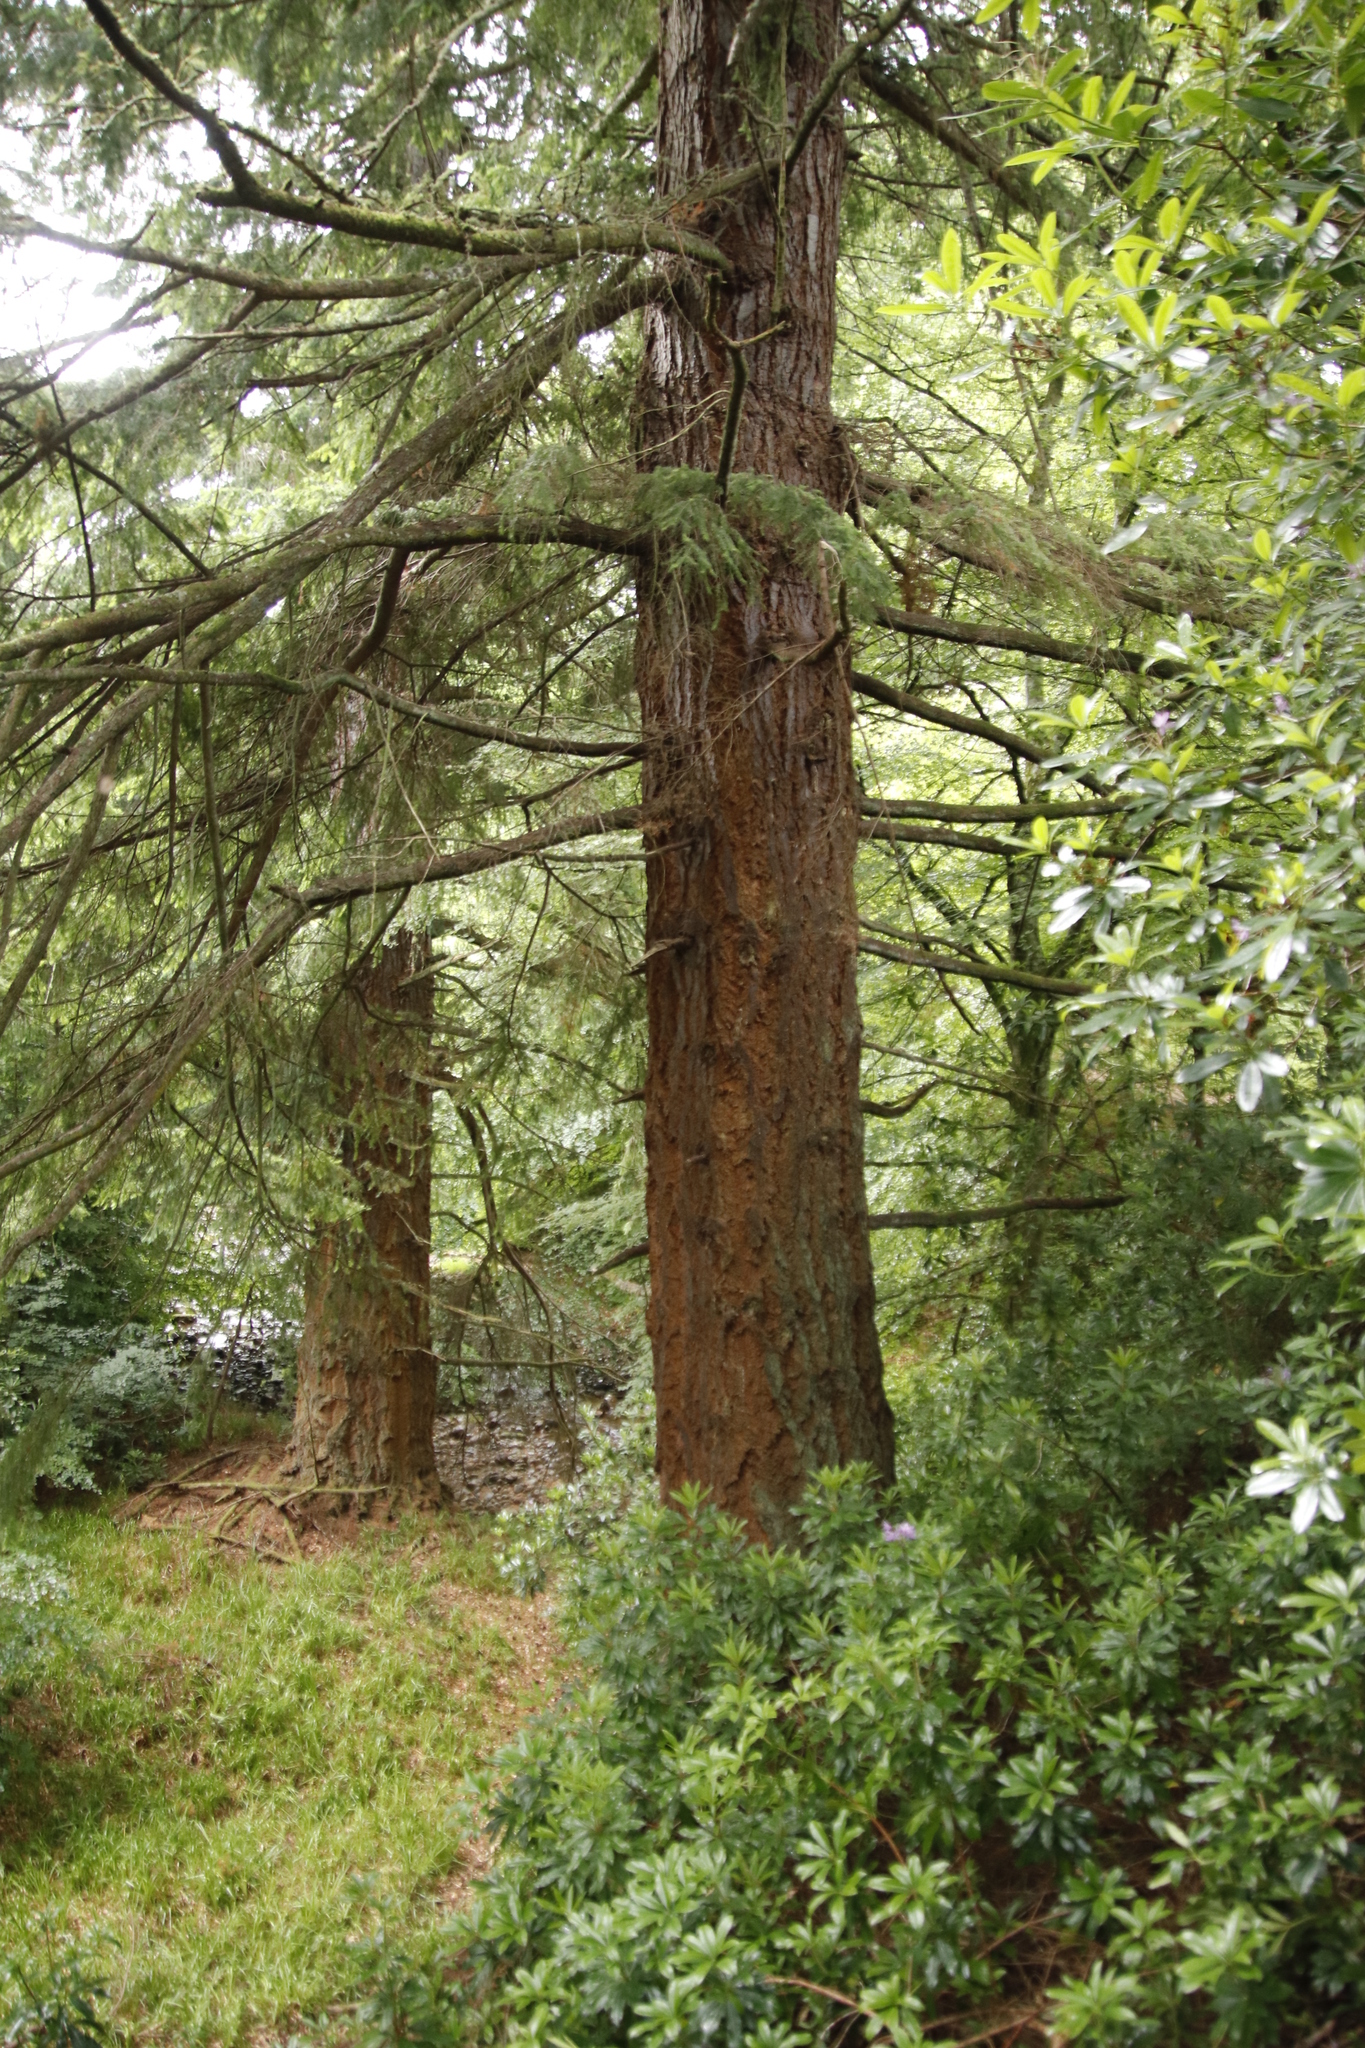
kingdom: Plantae
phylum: Tracheophyta
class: Pinopsida
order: Pinales
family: Pinaceae
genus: Pseudotsuga
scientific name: Pseudotsuga menziesii
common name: Douglas fir
